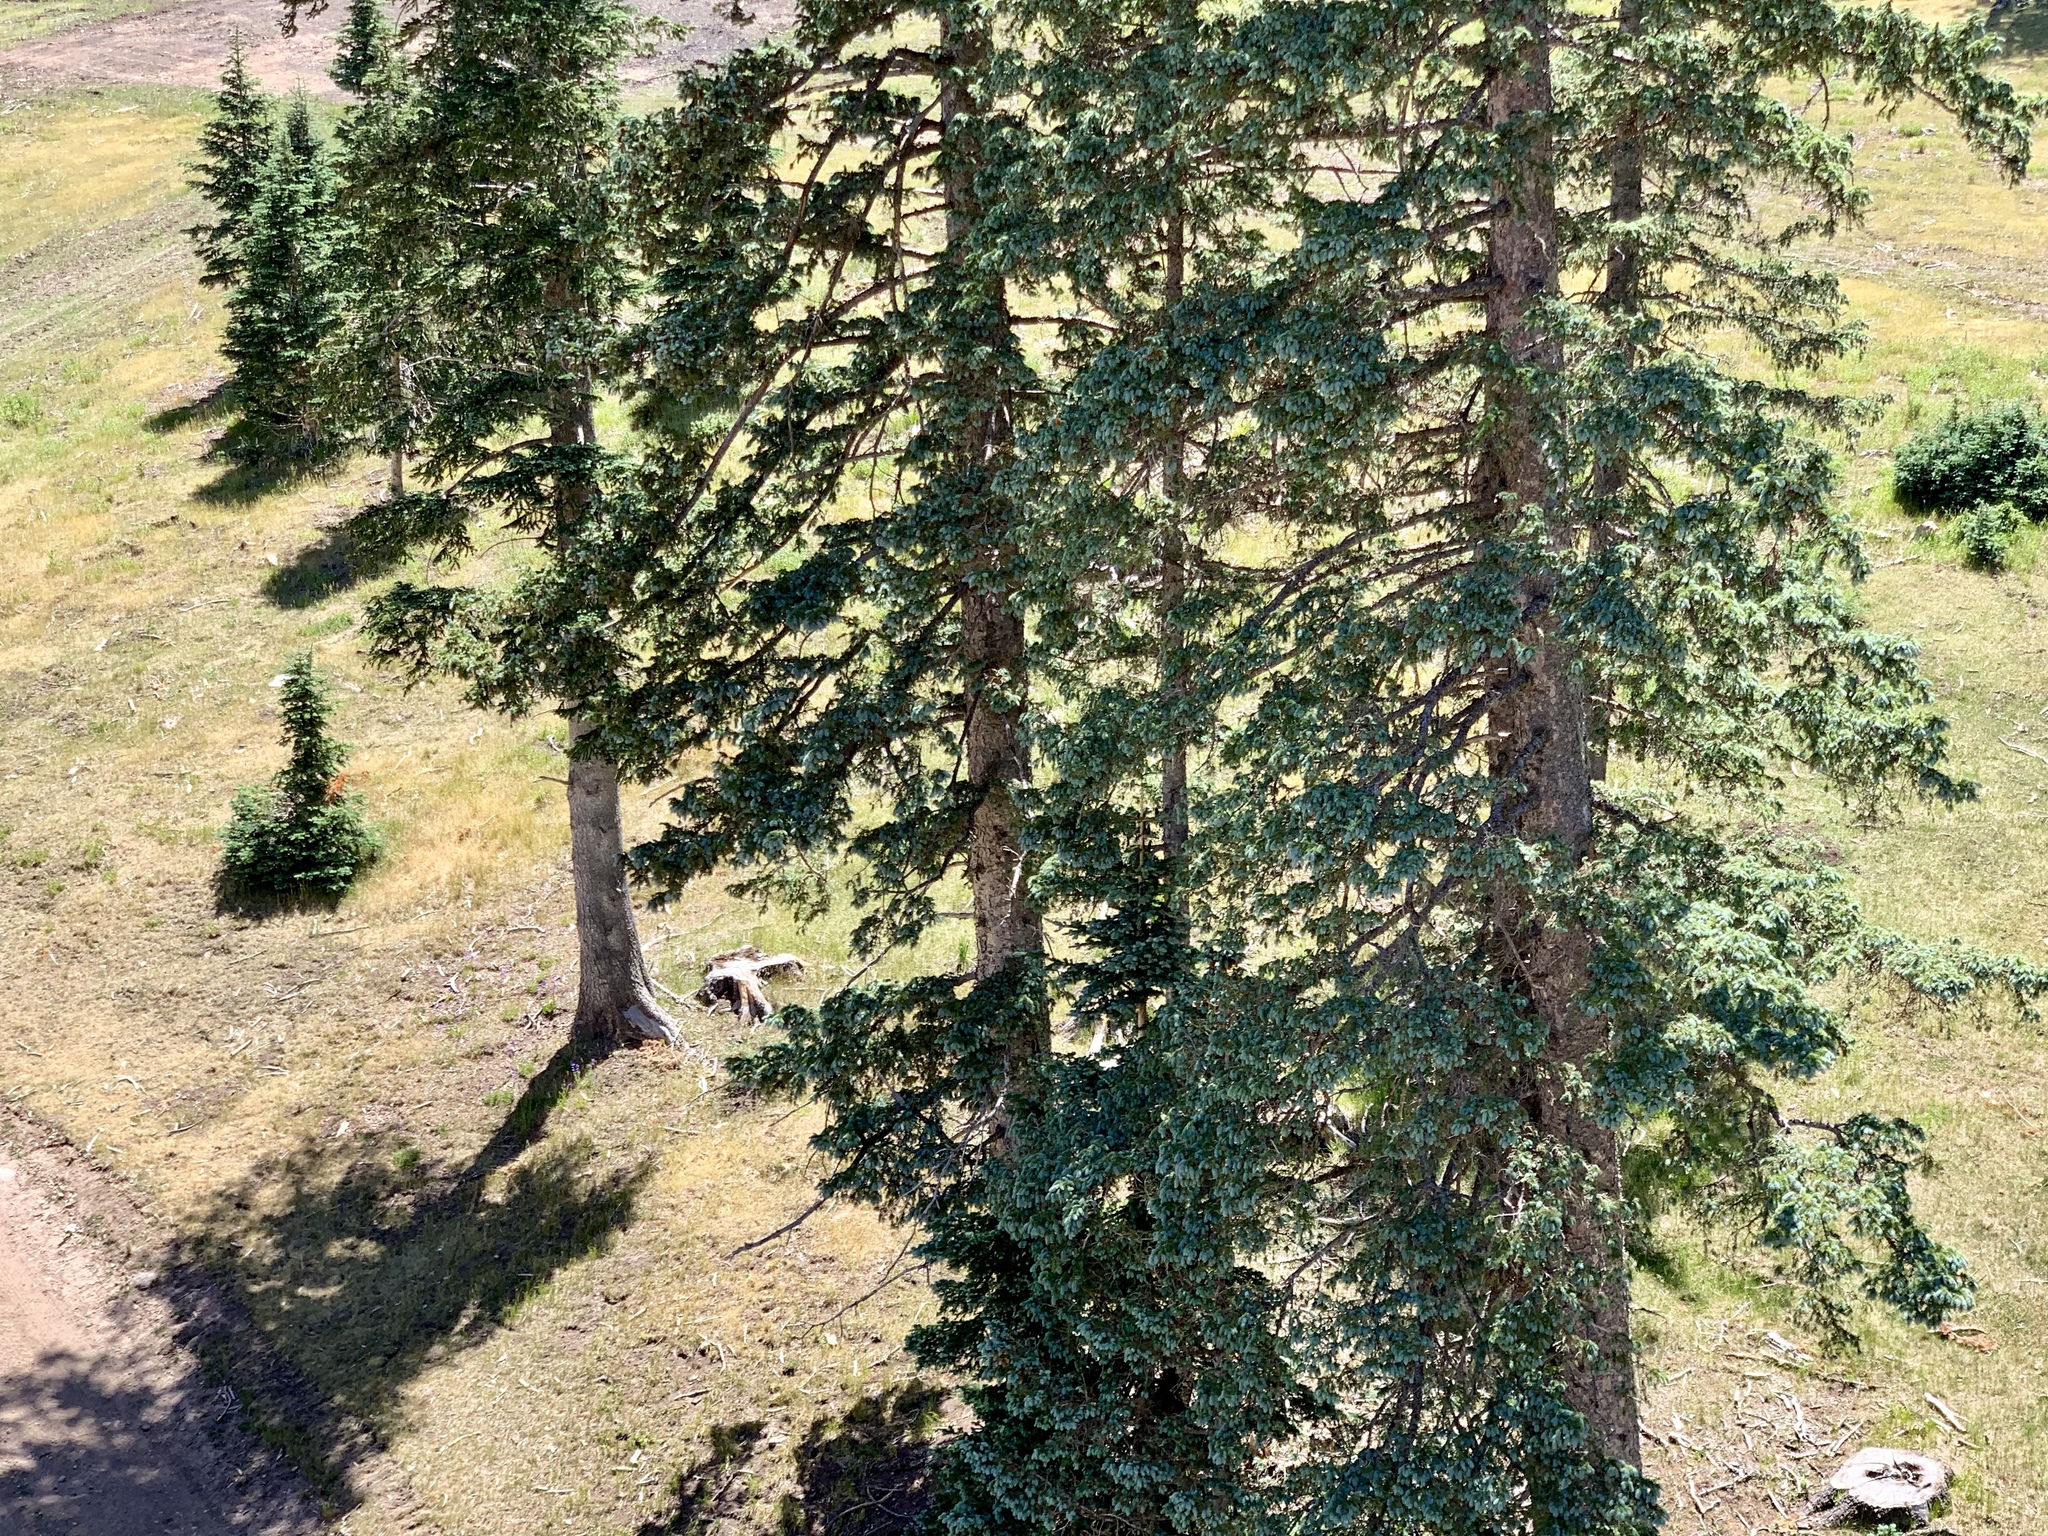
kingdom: Plantae
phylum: Tracheophyta
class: Pinopsida
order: Pinales
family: Pinaceae
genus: Picea
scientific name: Picea engelmannii
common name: Engelmann spruce
